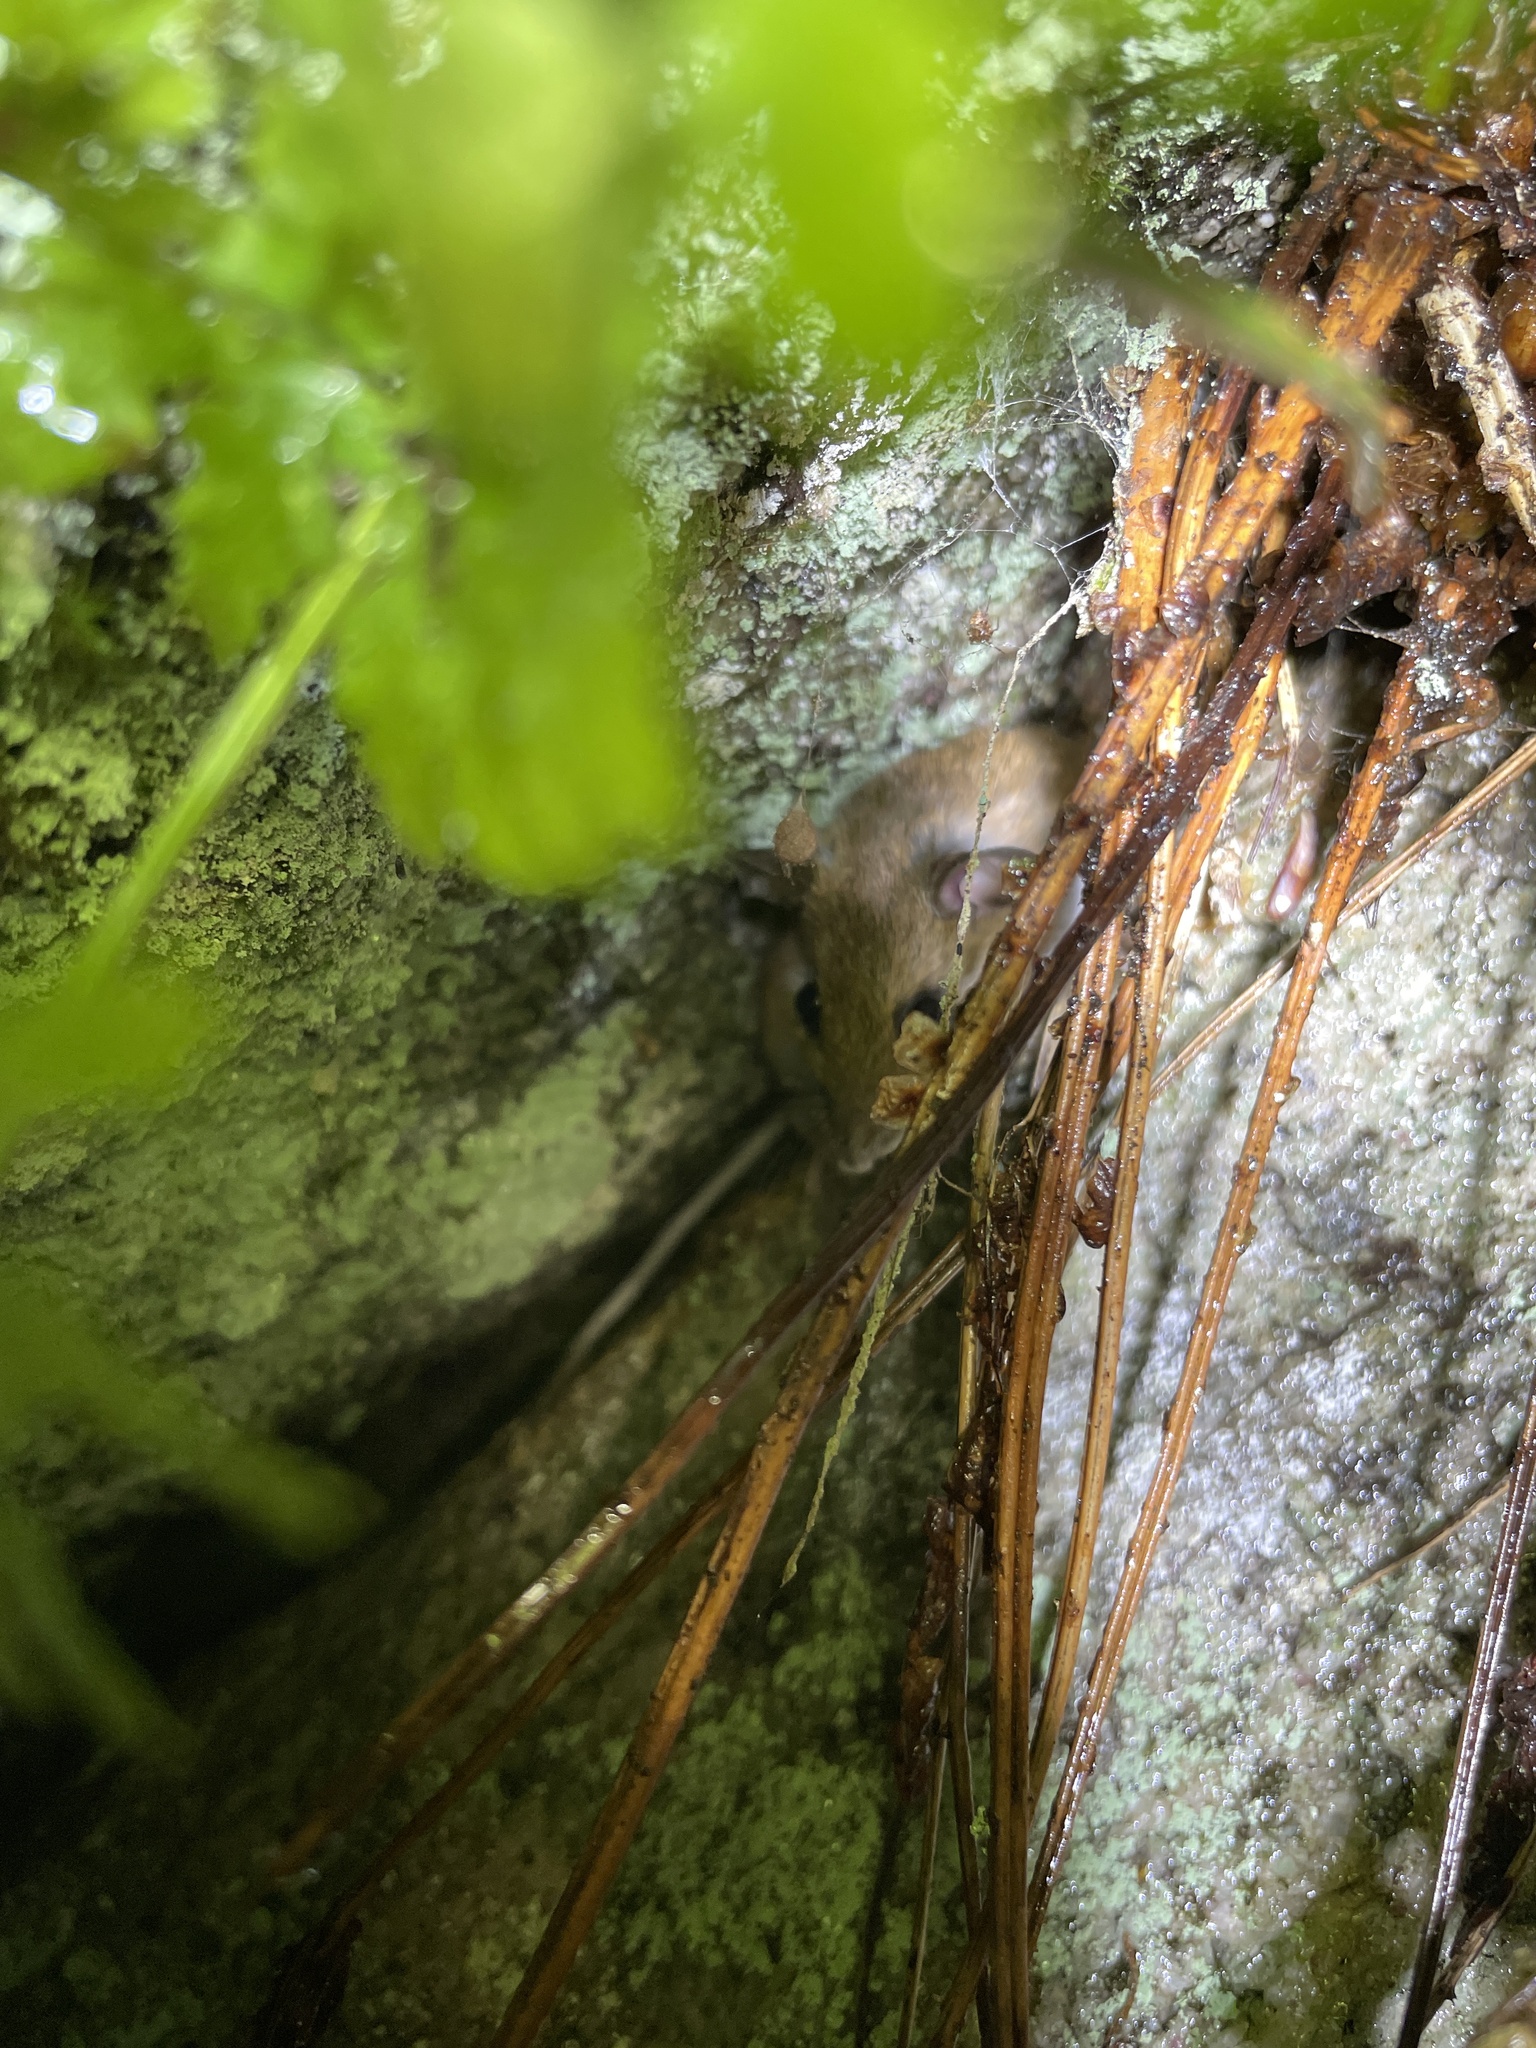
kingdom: Animalia
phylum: Chordata
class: Mammalia
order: Rodentia
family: Cricetidae
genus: Peromyscus
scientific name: Peromyscus leucopus
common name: White-footed deermouse
